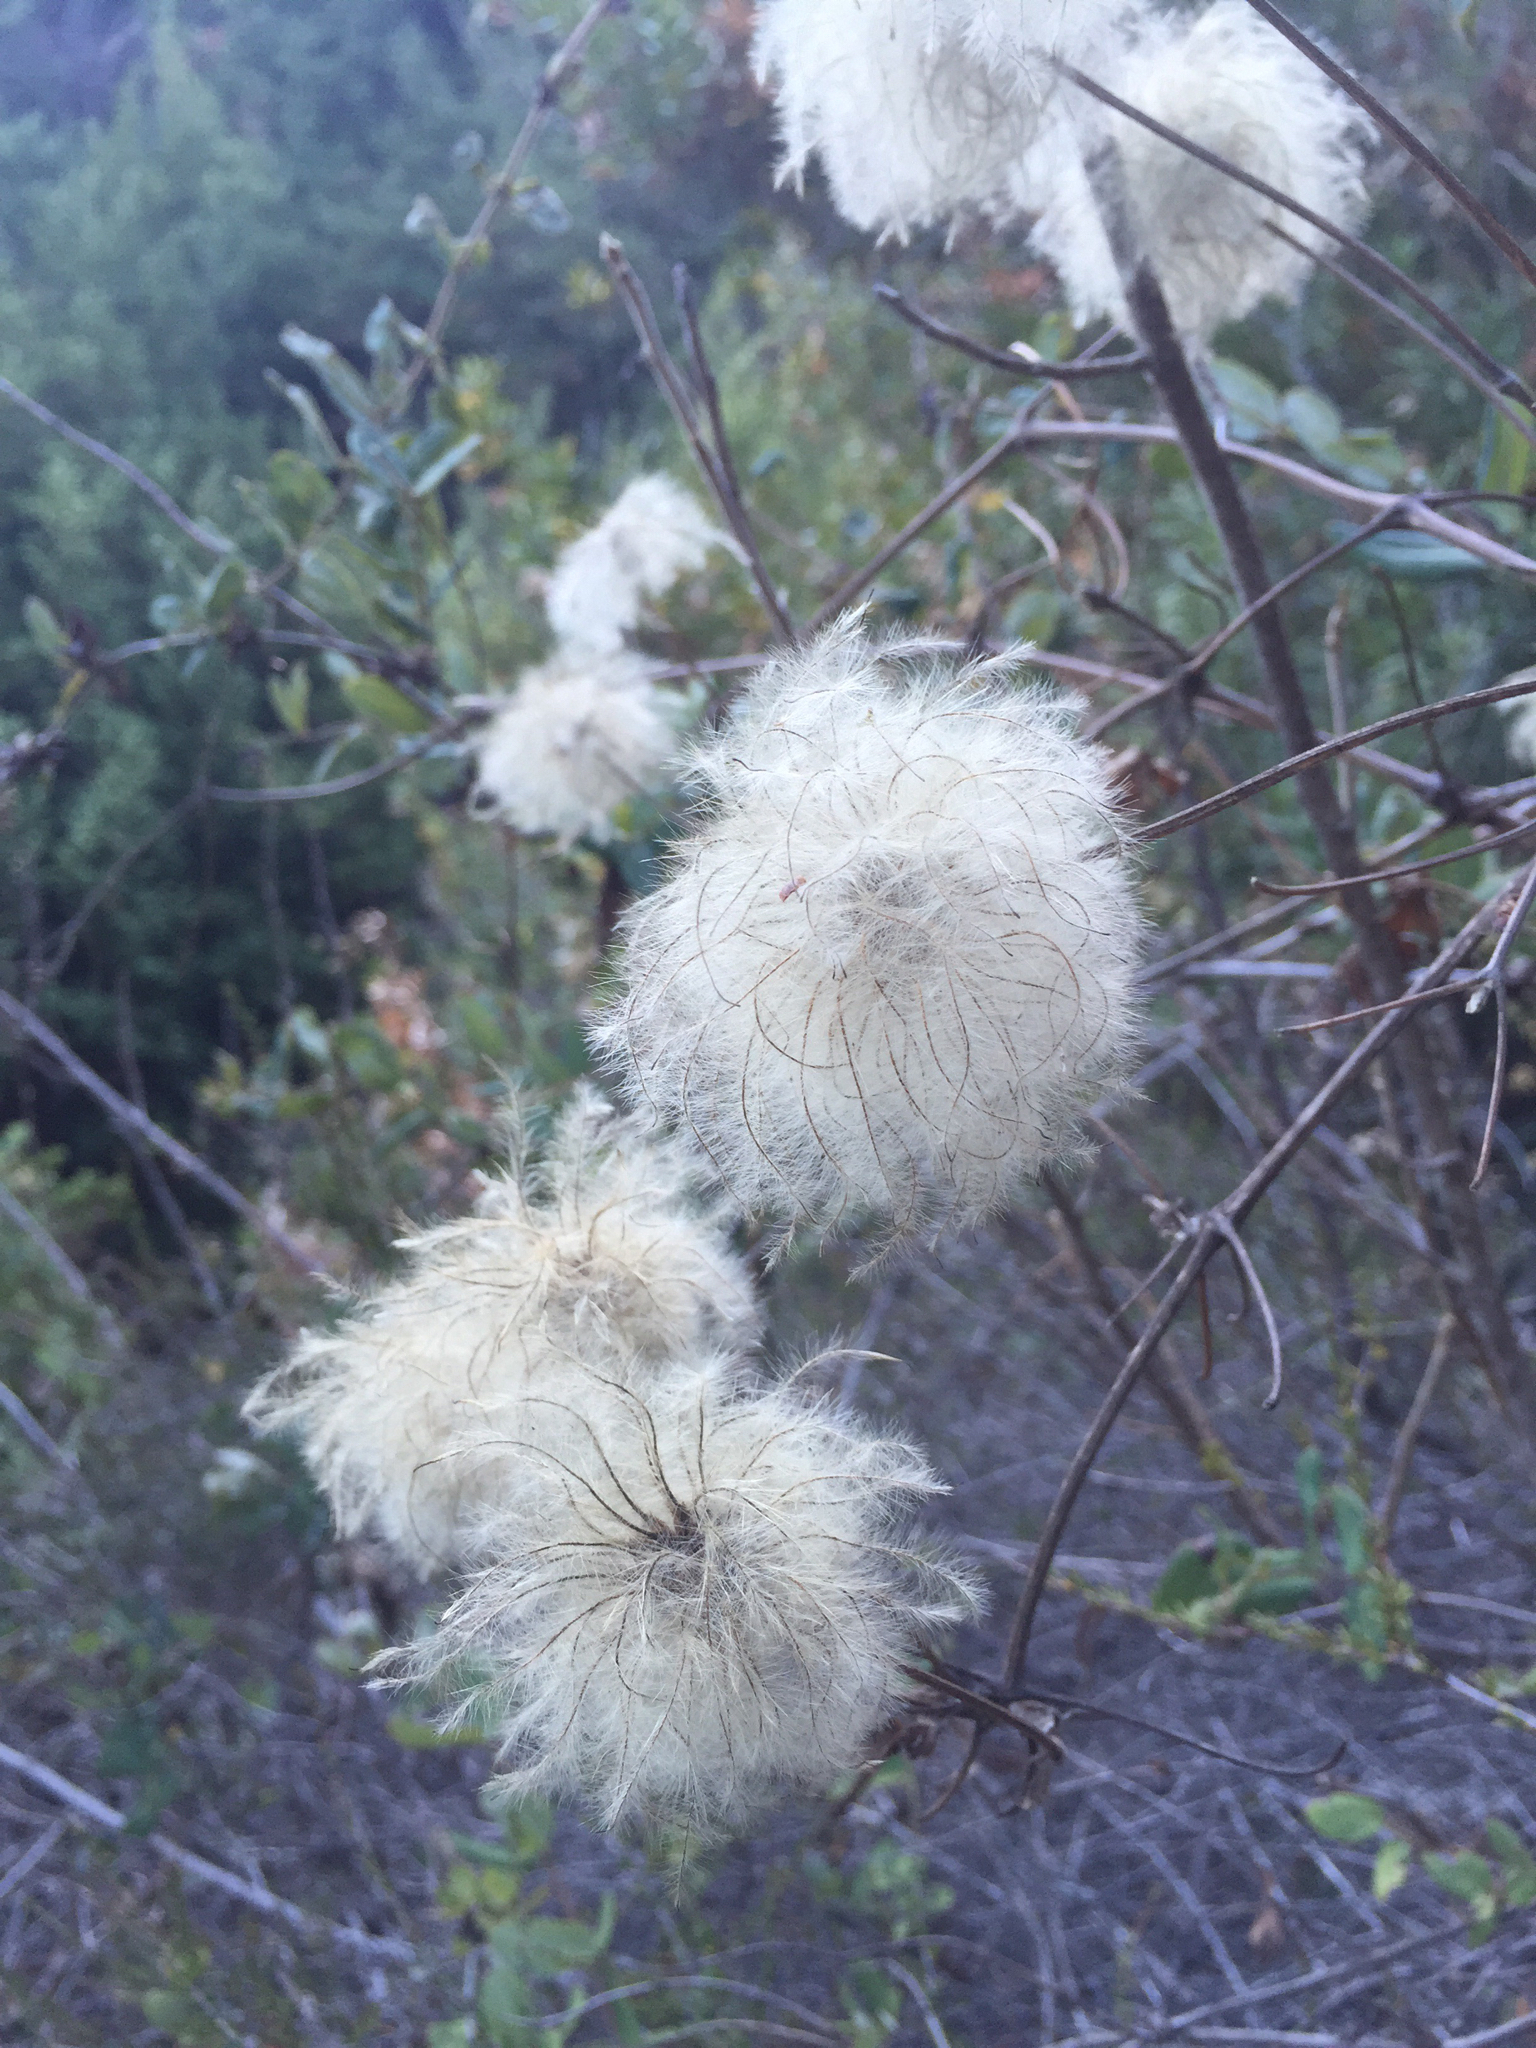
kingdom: Plantae
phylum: Tracheophyta
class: Magnoliopsida
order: Ranunculales
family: Ranunculaceae
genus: Clematis
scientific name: Clematis lasiantha
